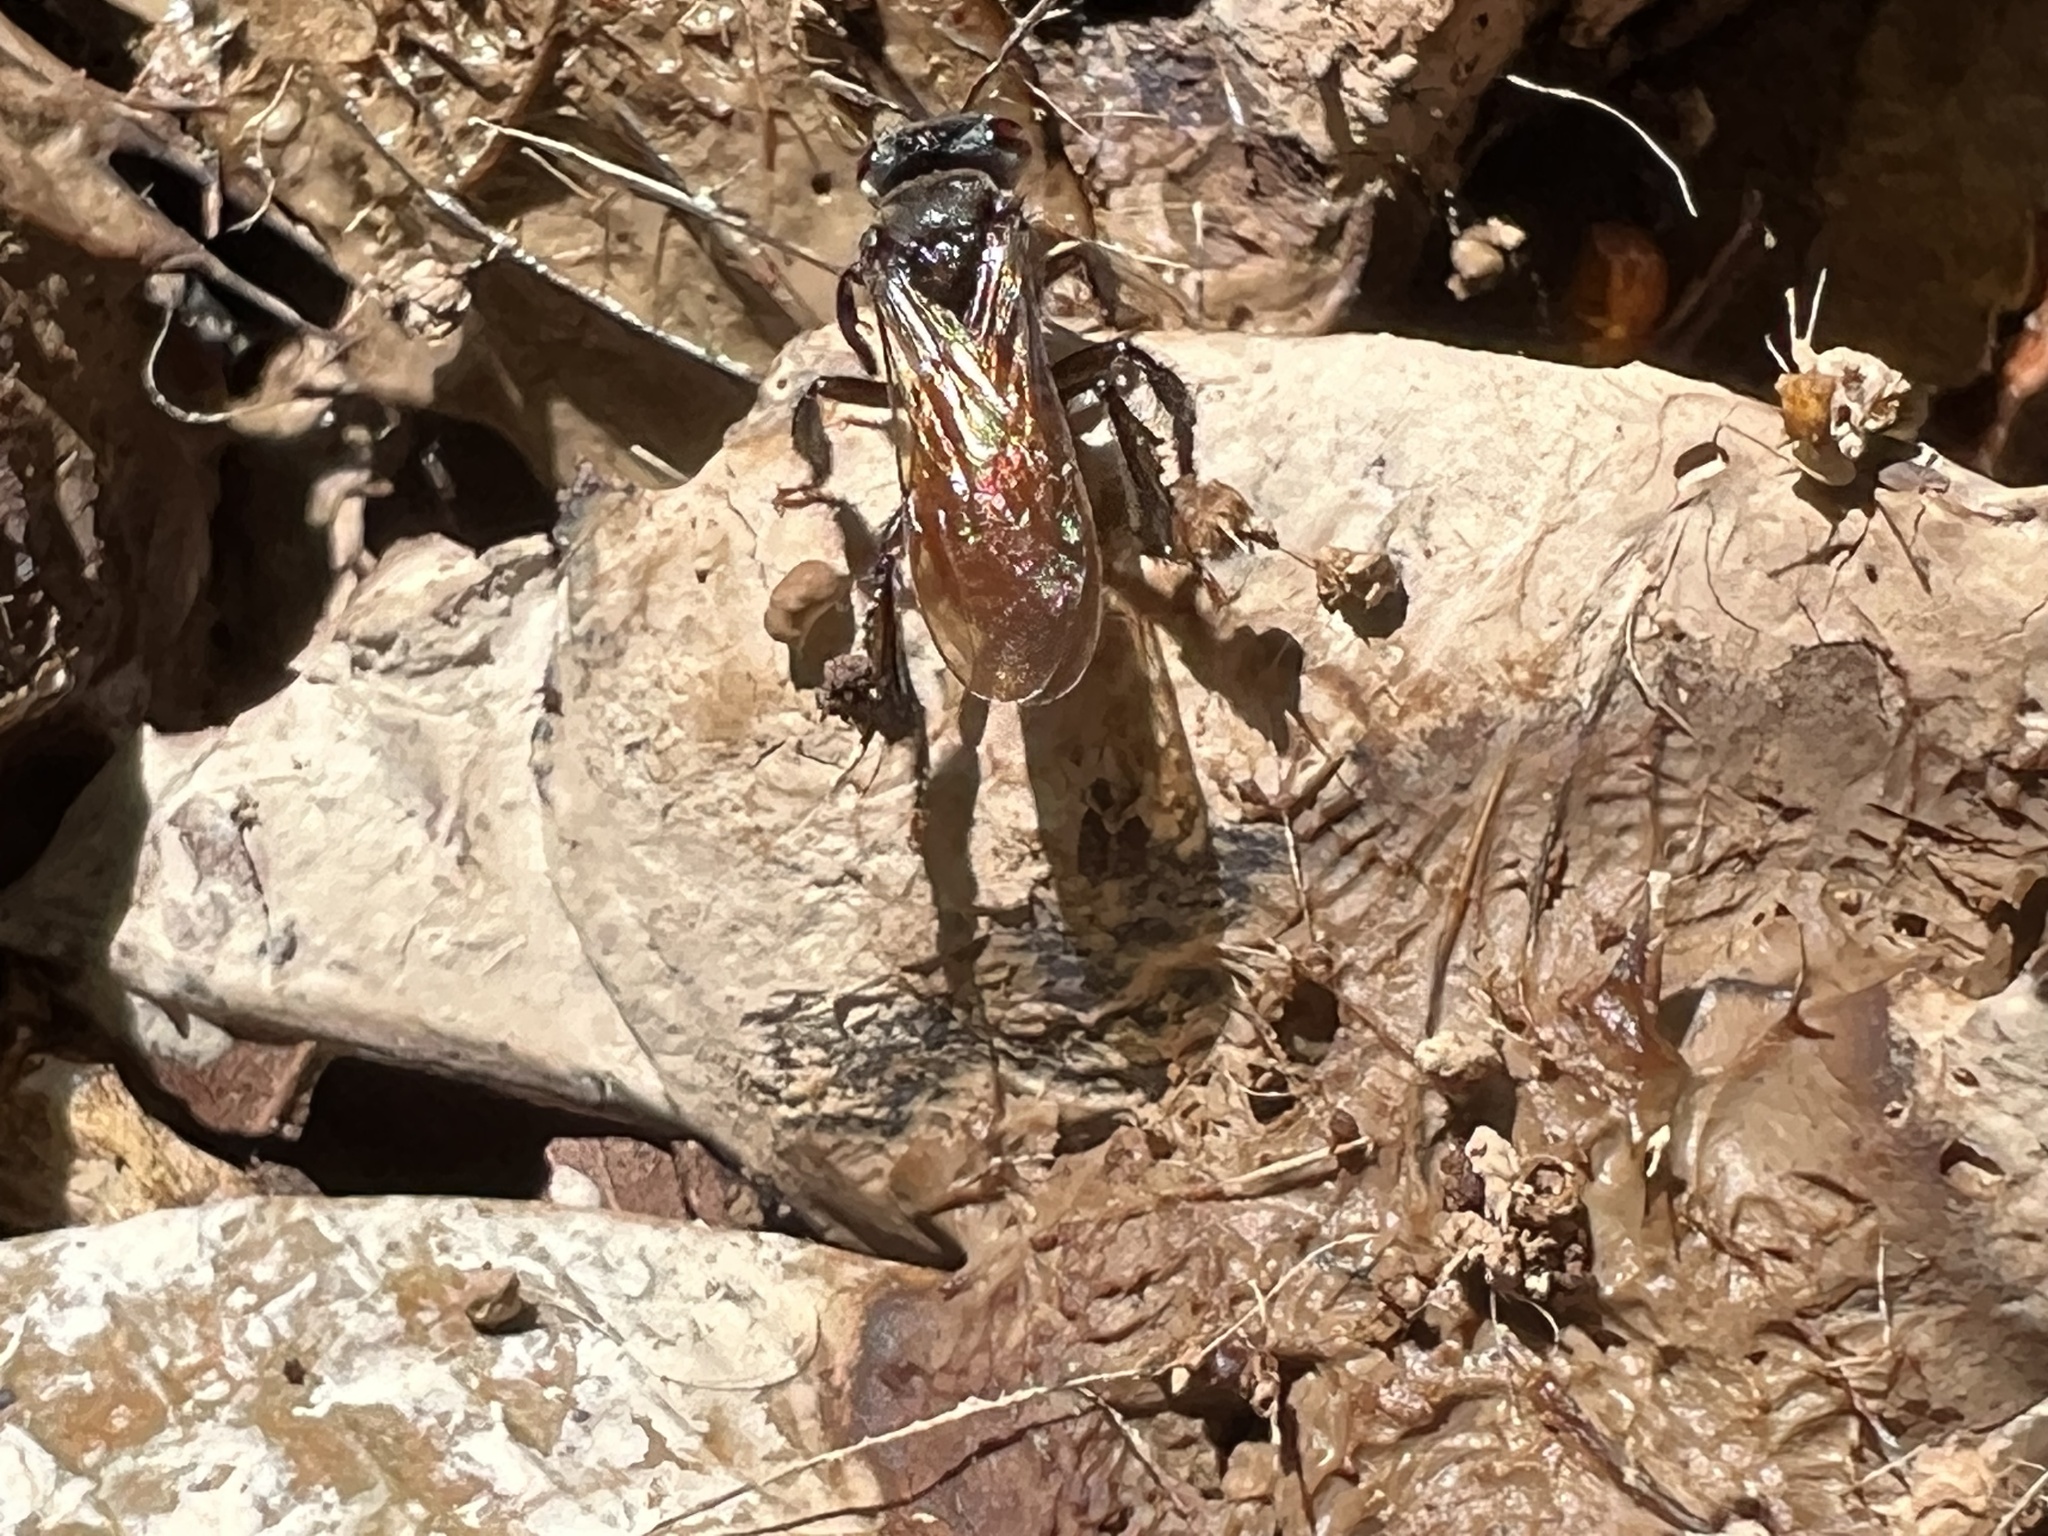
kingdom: Animalia
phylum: Arthropoda
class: Insecta
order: Hymenoptera
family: Apidae
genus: Trigona
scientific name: Trigona fulviventris
